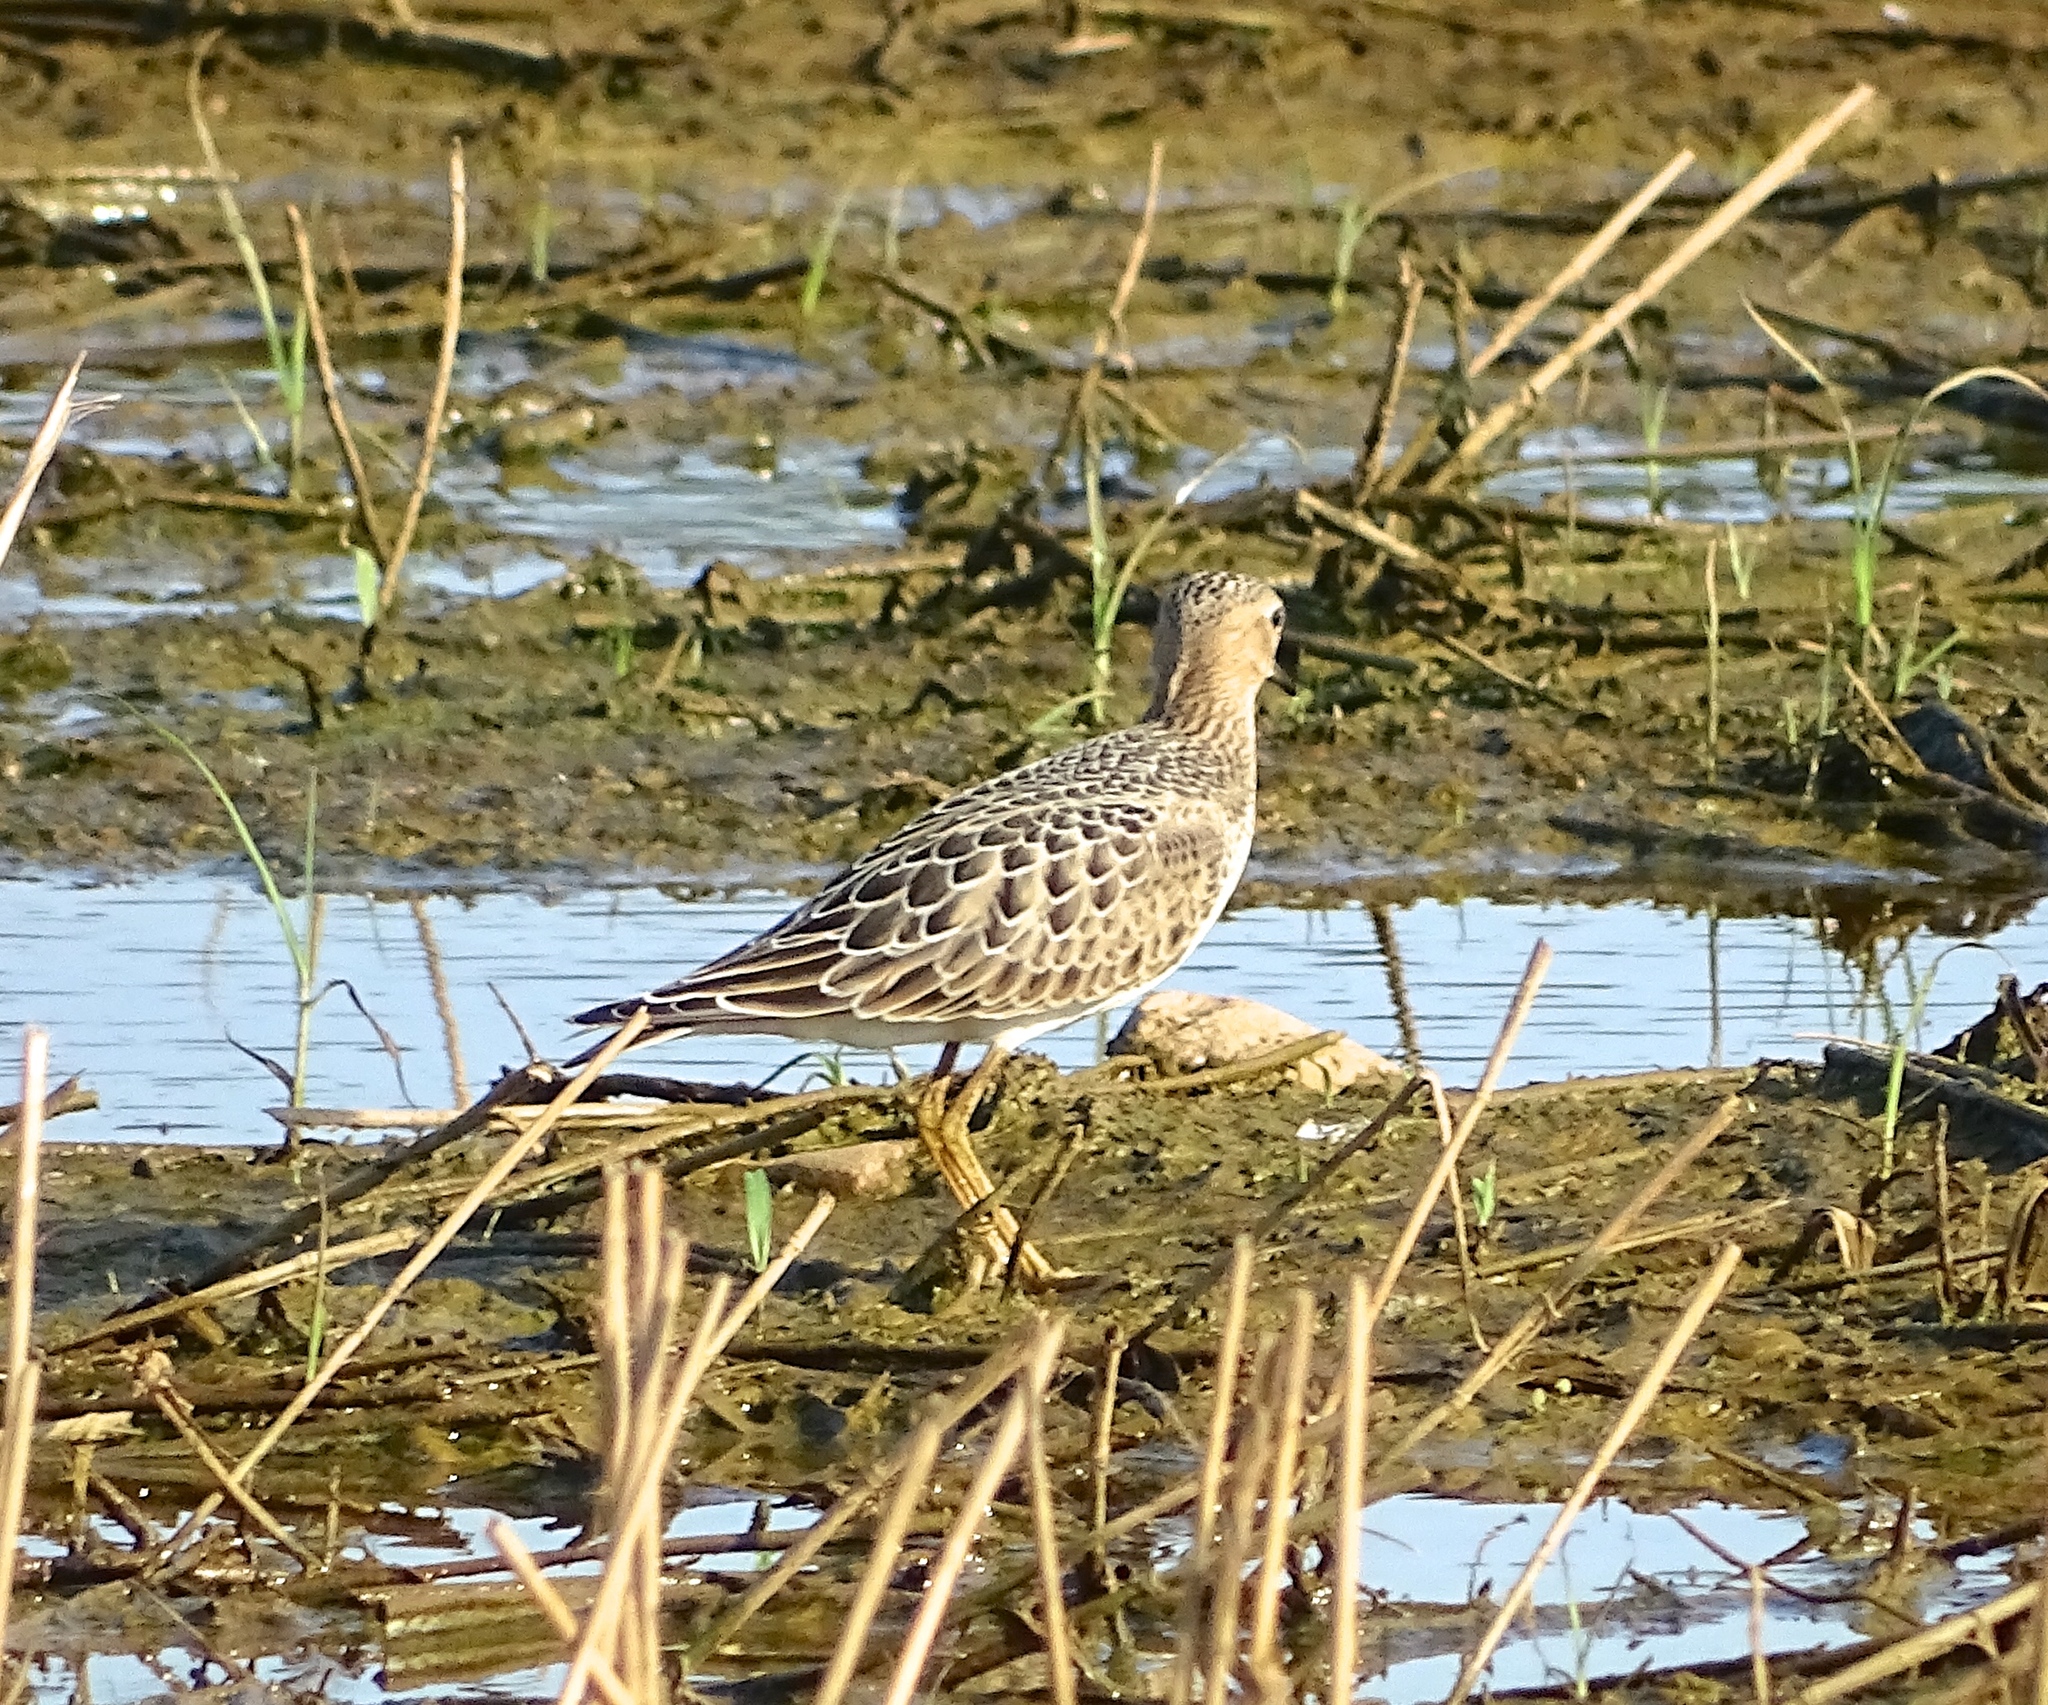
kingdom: Animalia
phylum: Chordata
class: Aves
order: Charadriiformes
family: Scolopacidae
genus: Calidris
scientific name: Calidris subruficollis
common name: Buff-breasted sandpiper
